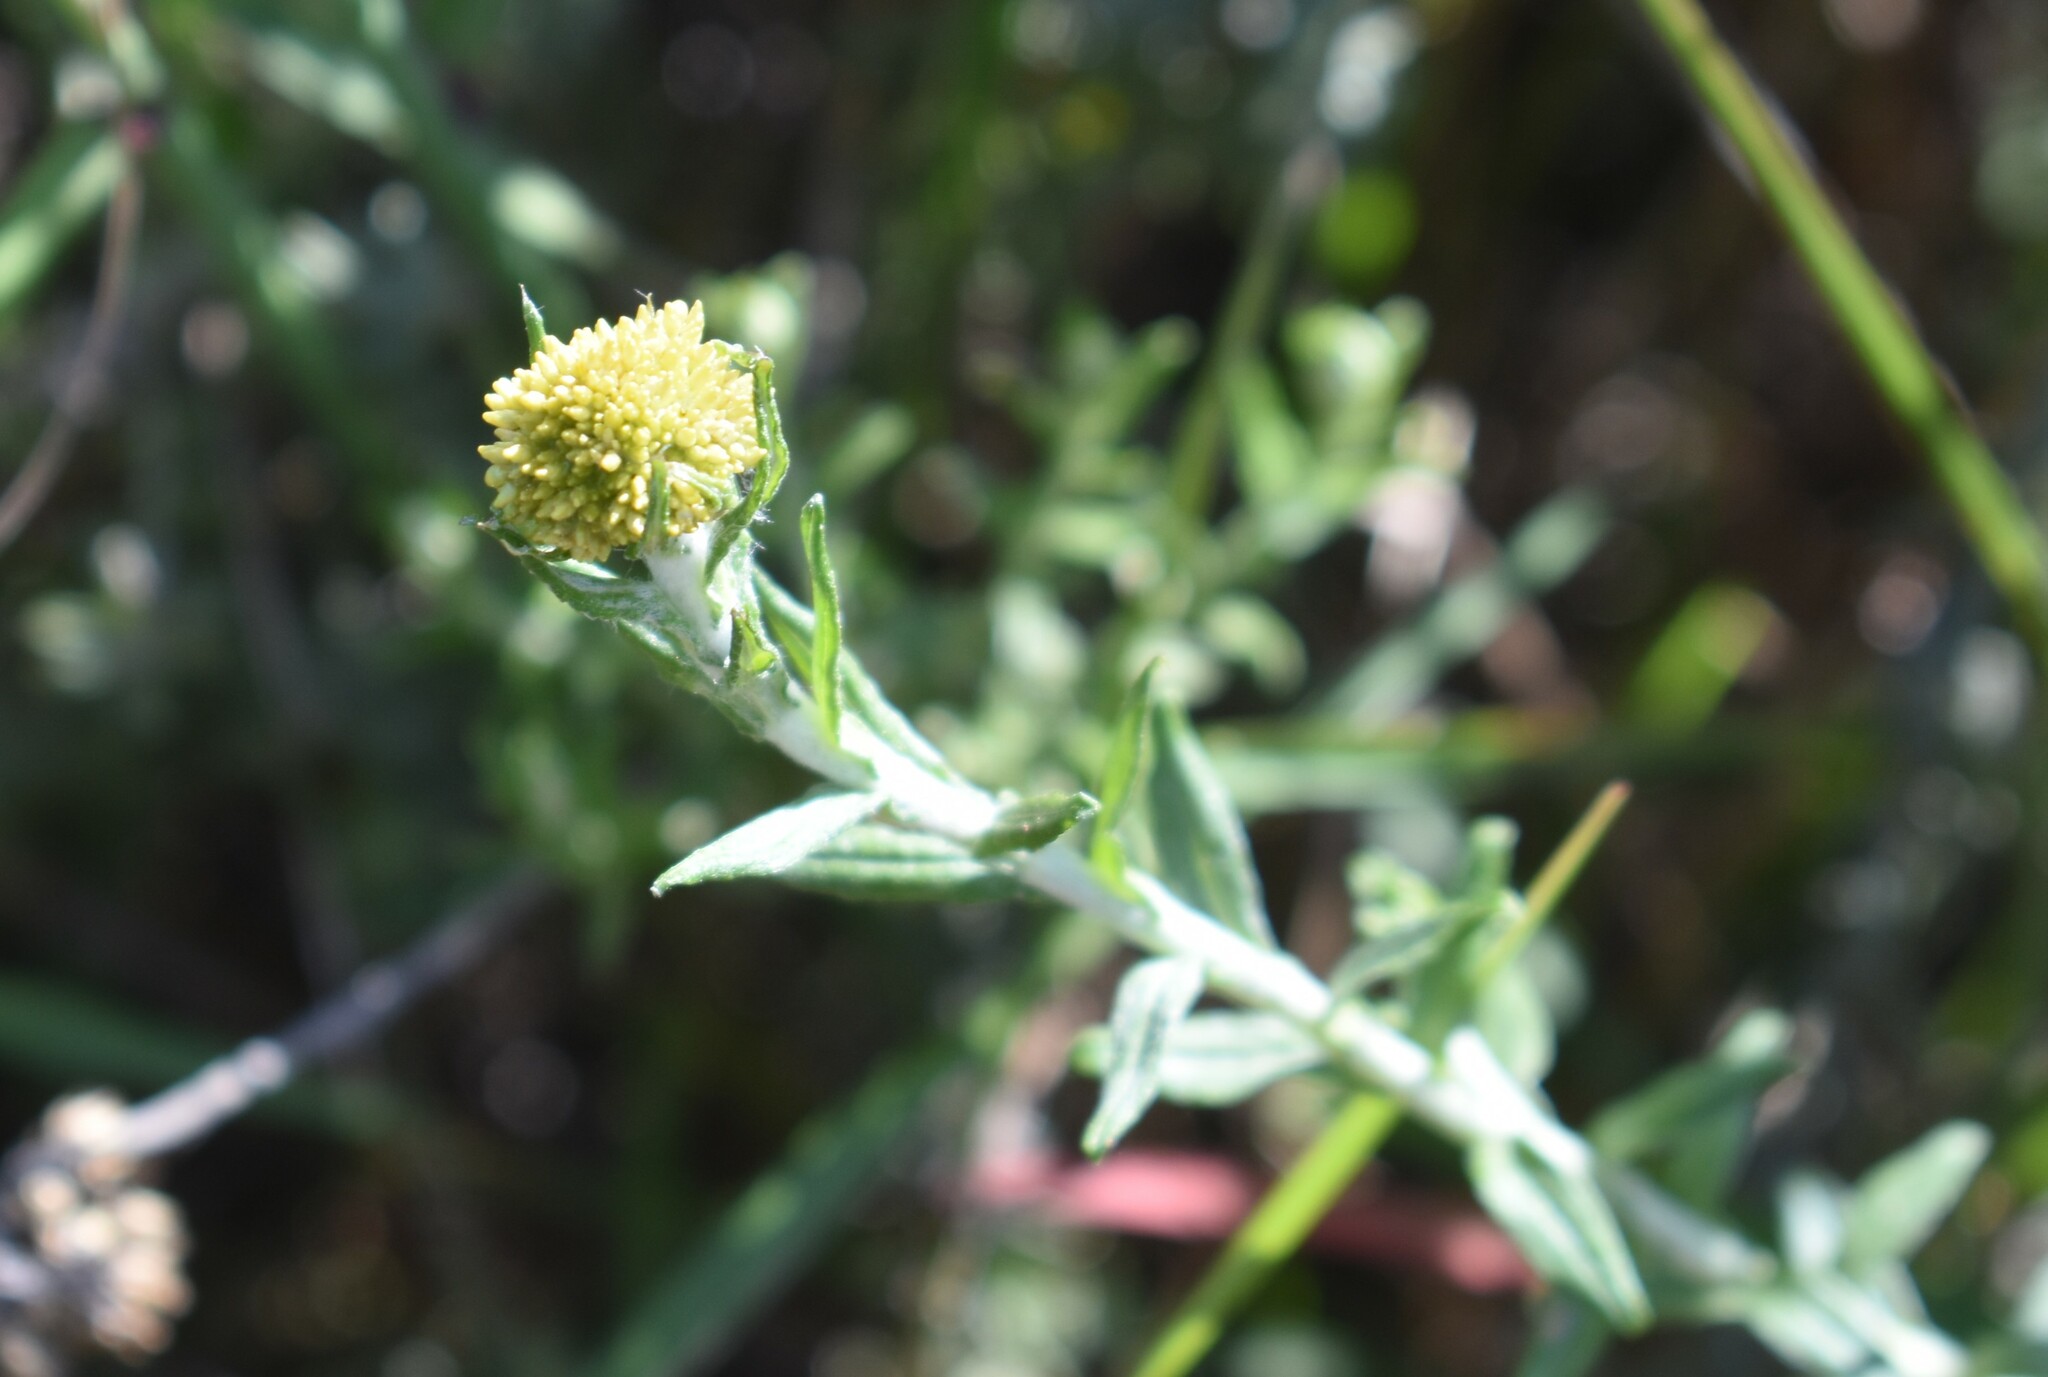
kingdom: Plantae
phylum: Tracheophyta
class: Magnoliopsida
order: Asterales
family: Asteraceae
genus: Helichrysum
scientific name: Helichrysum cymosum
